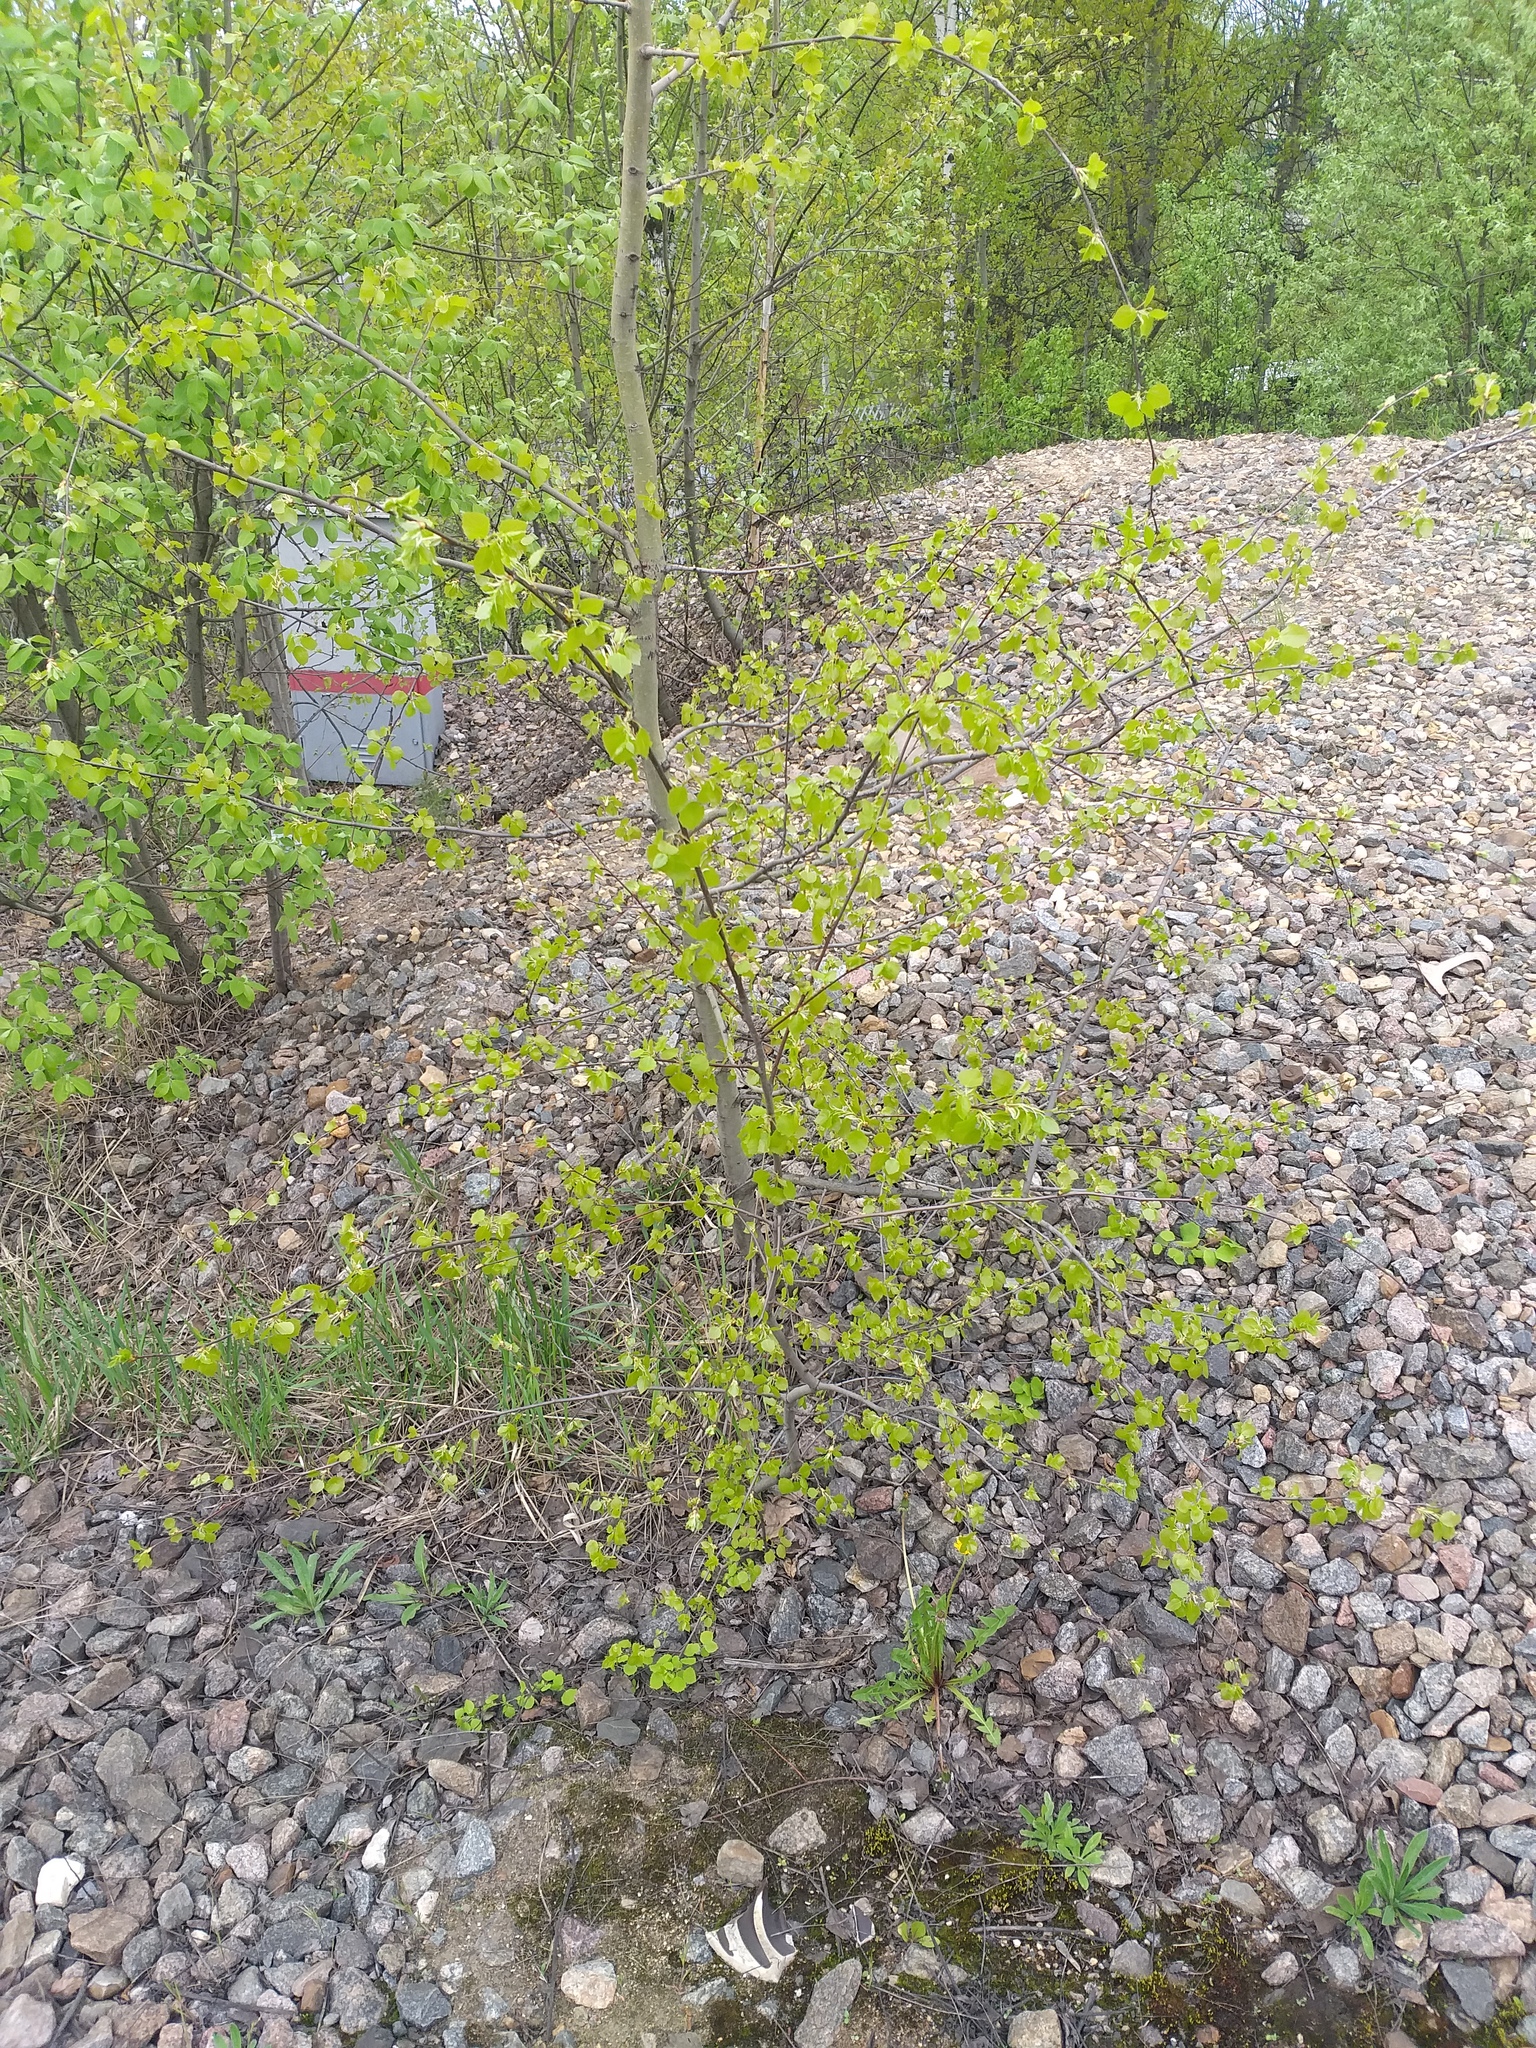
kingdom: Plantae
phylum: Tracheophyta
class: Magnoliopsida
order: Malpighiales
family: Salicaceae
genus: Populus
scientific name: Populus tremula
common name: European aspen
